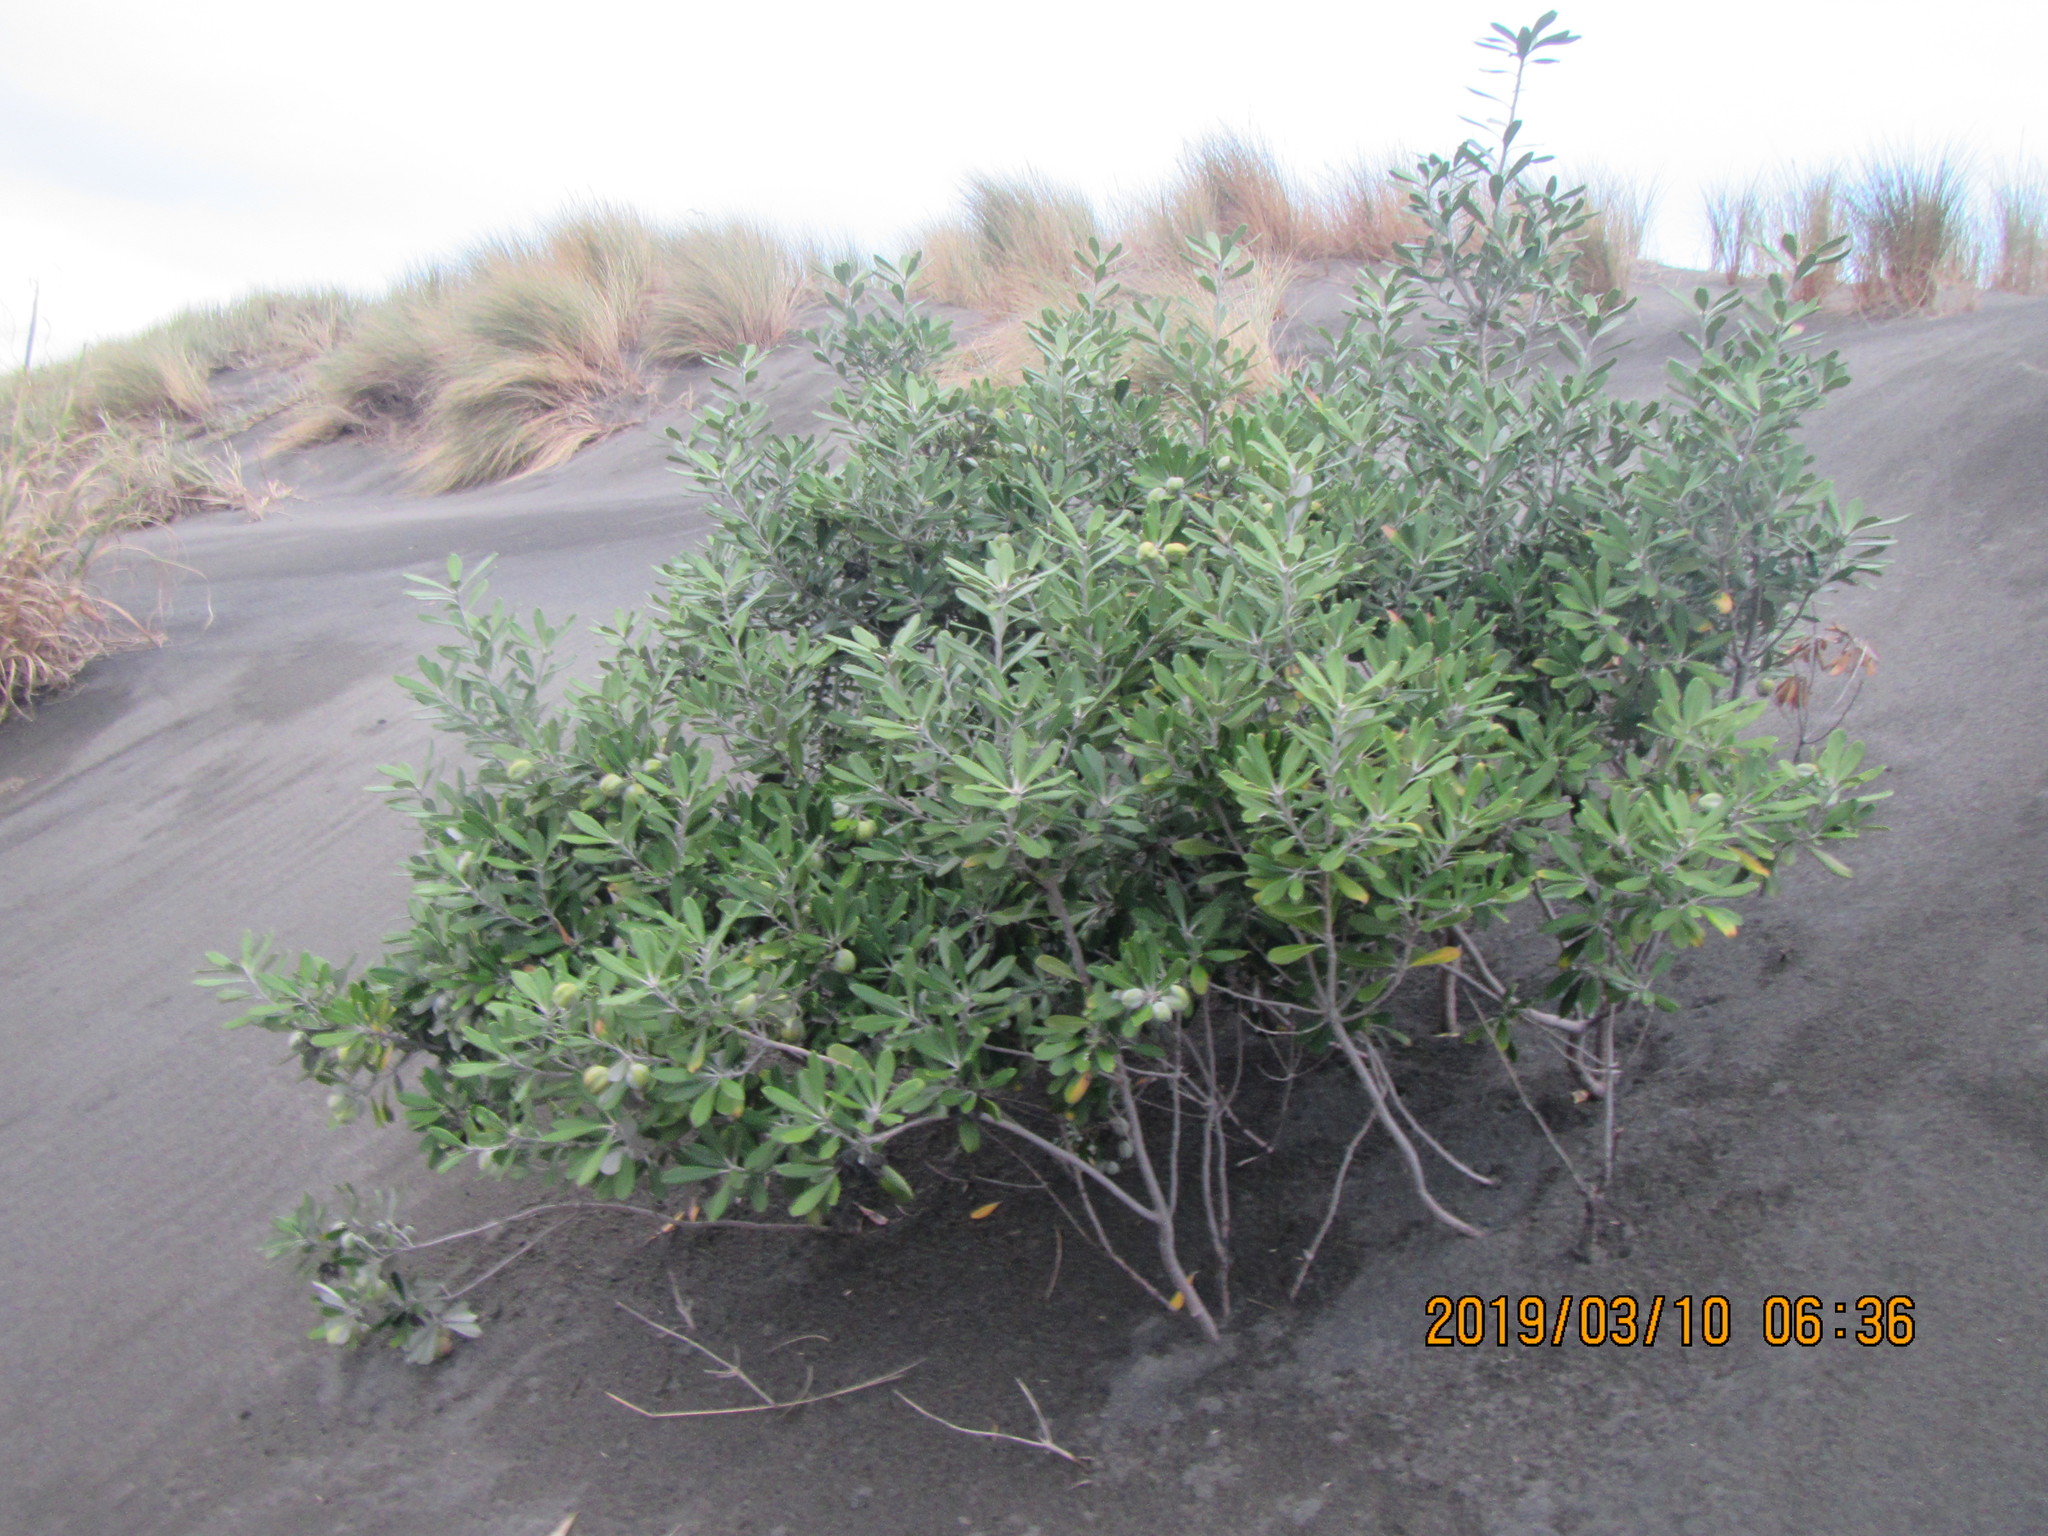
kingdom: Plantae
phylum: Tracheophyta
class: Magnoliopsida
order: Apiales
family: Pittosporaceae
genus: Pittosporum
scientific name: Pittosporum crassifolium
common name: Karo
